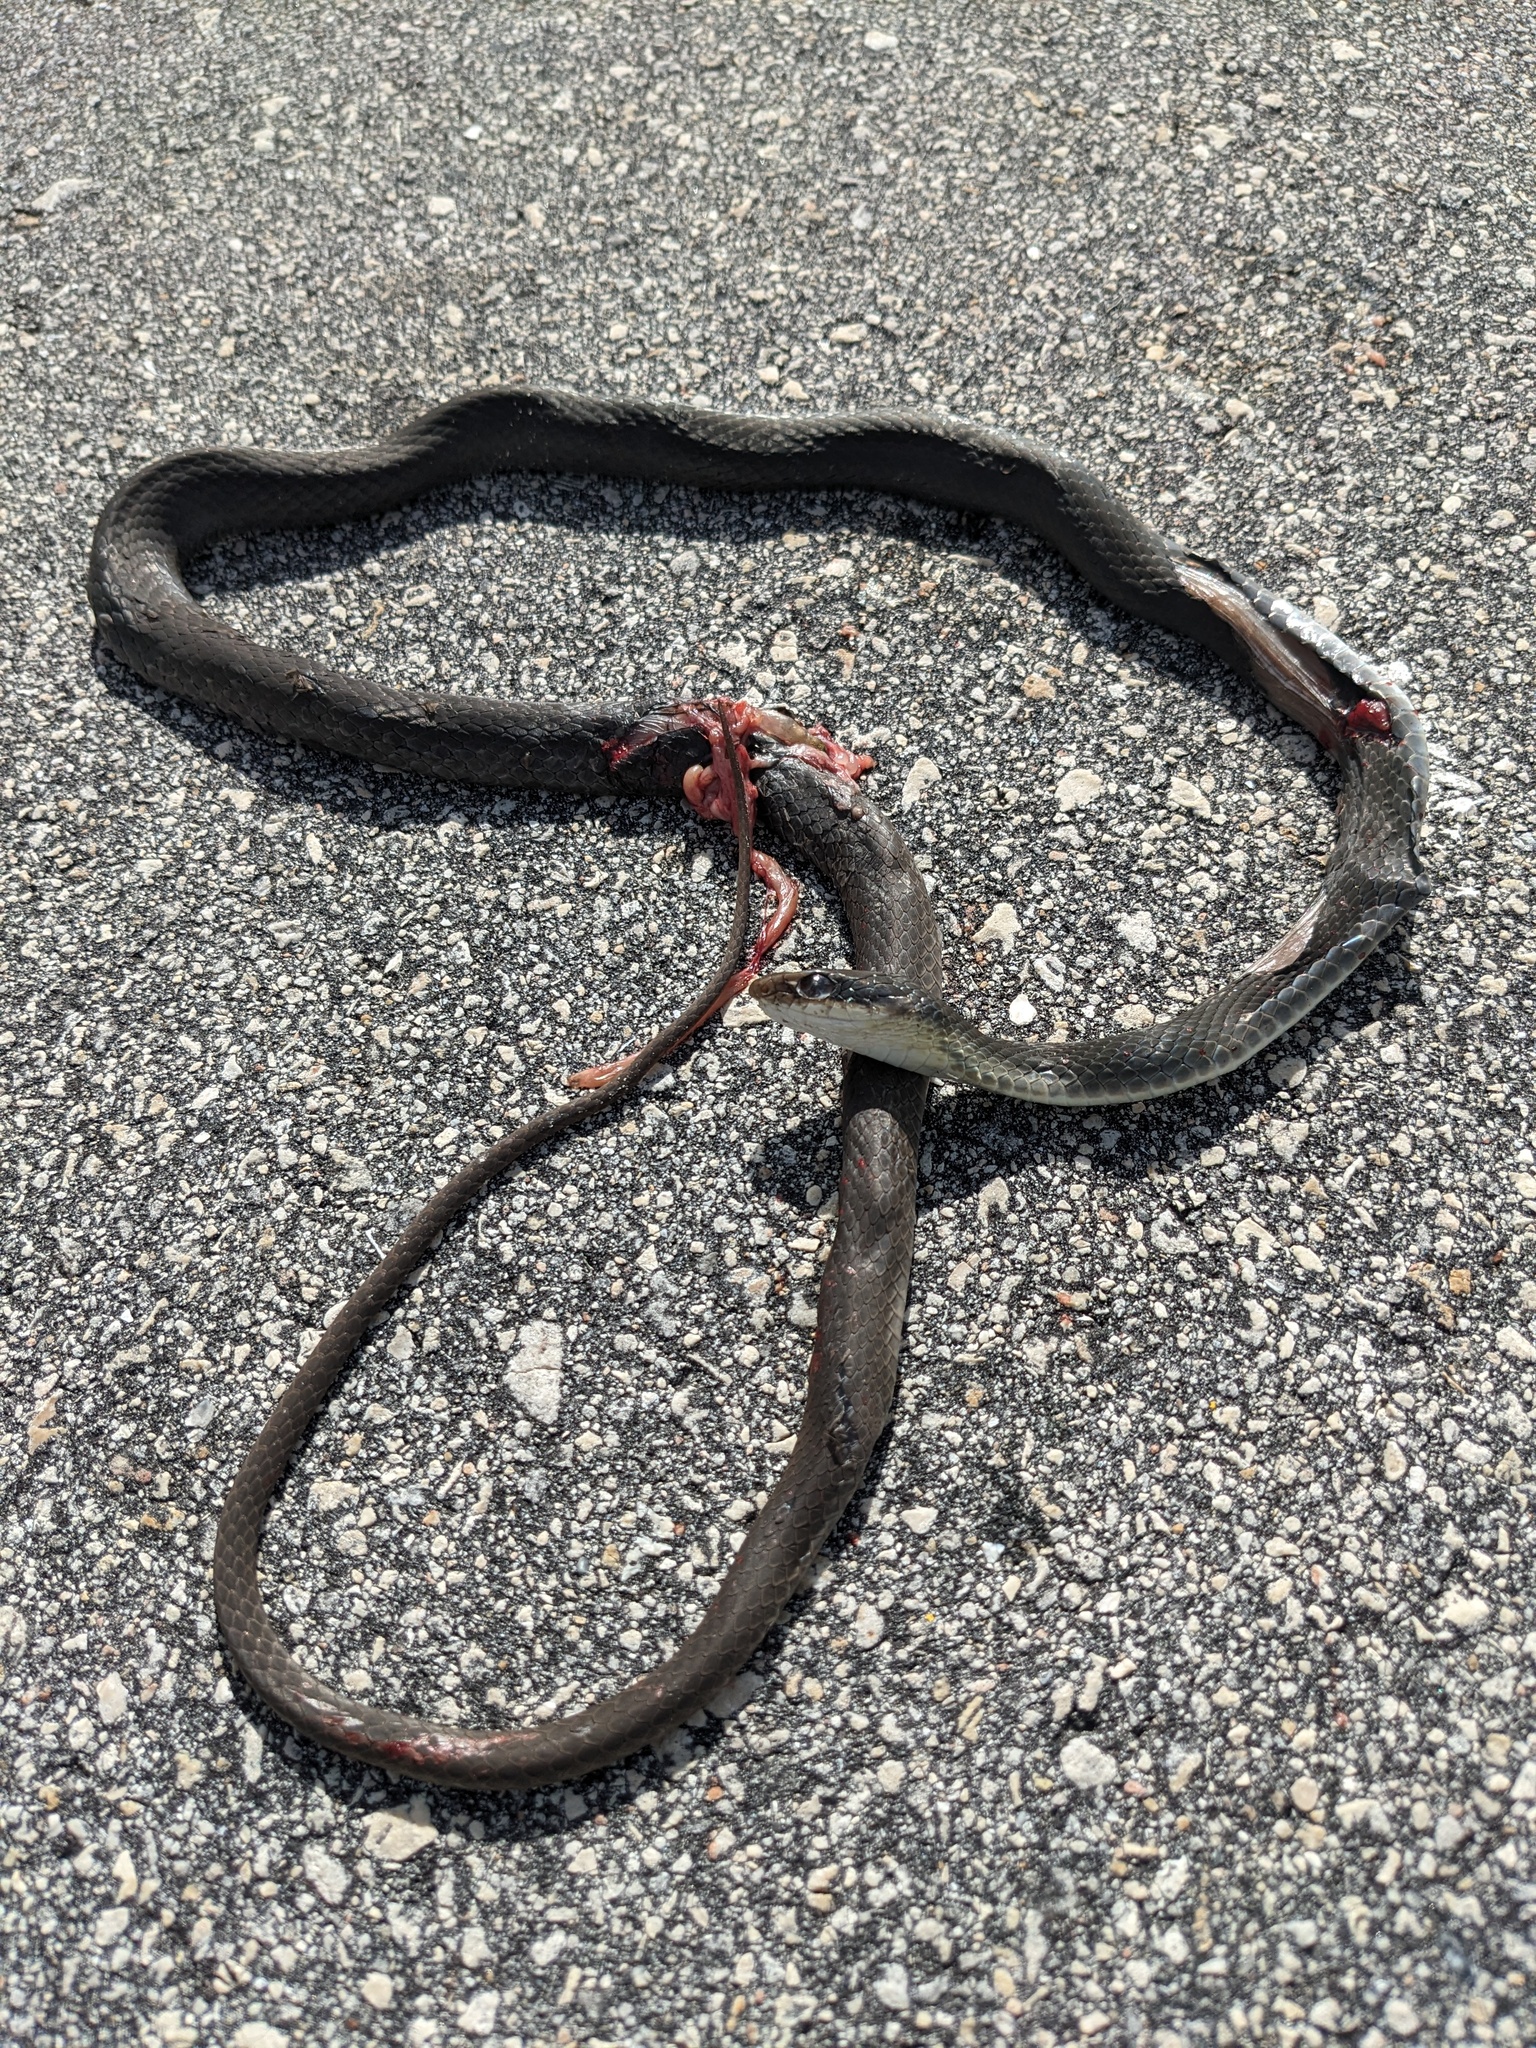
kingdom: Animalia
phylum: Chordata
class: Squamata
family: Colubridae
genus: Coluber
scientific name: Coluber constrictor
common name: Eastern racer
